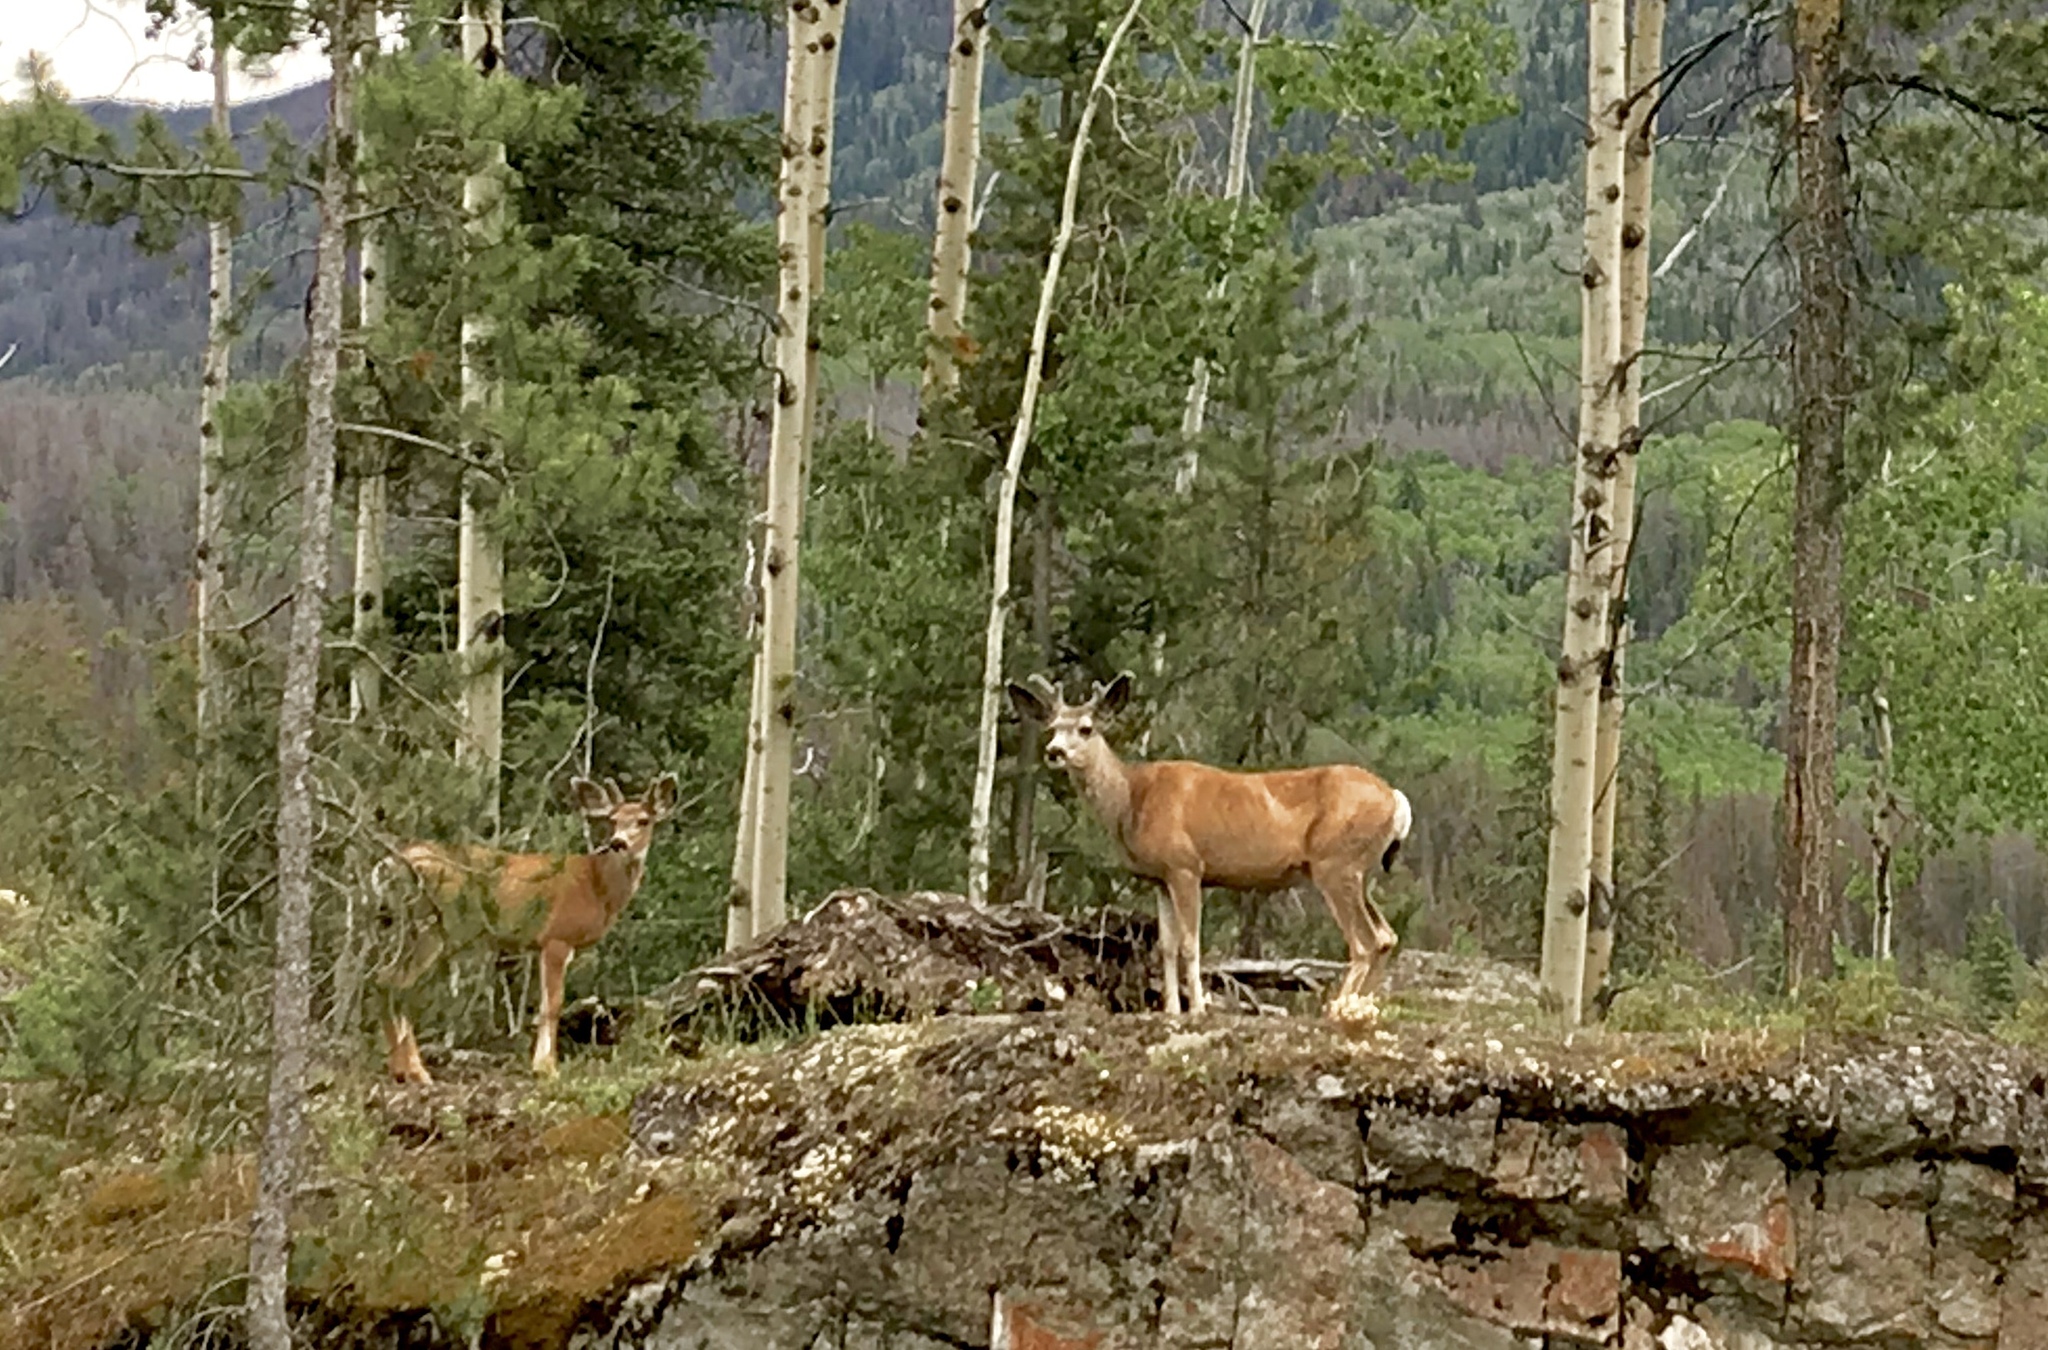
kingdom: Animalia
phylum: Chordata
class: Mammalia
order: Artiodactyla
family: Cervidae
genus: Odocoileus
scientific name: Odocoileus hemionus
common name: Mule deer
